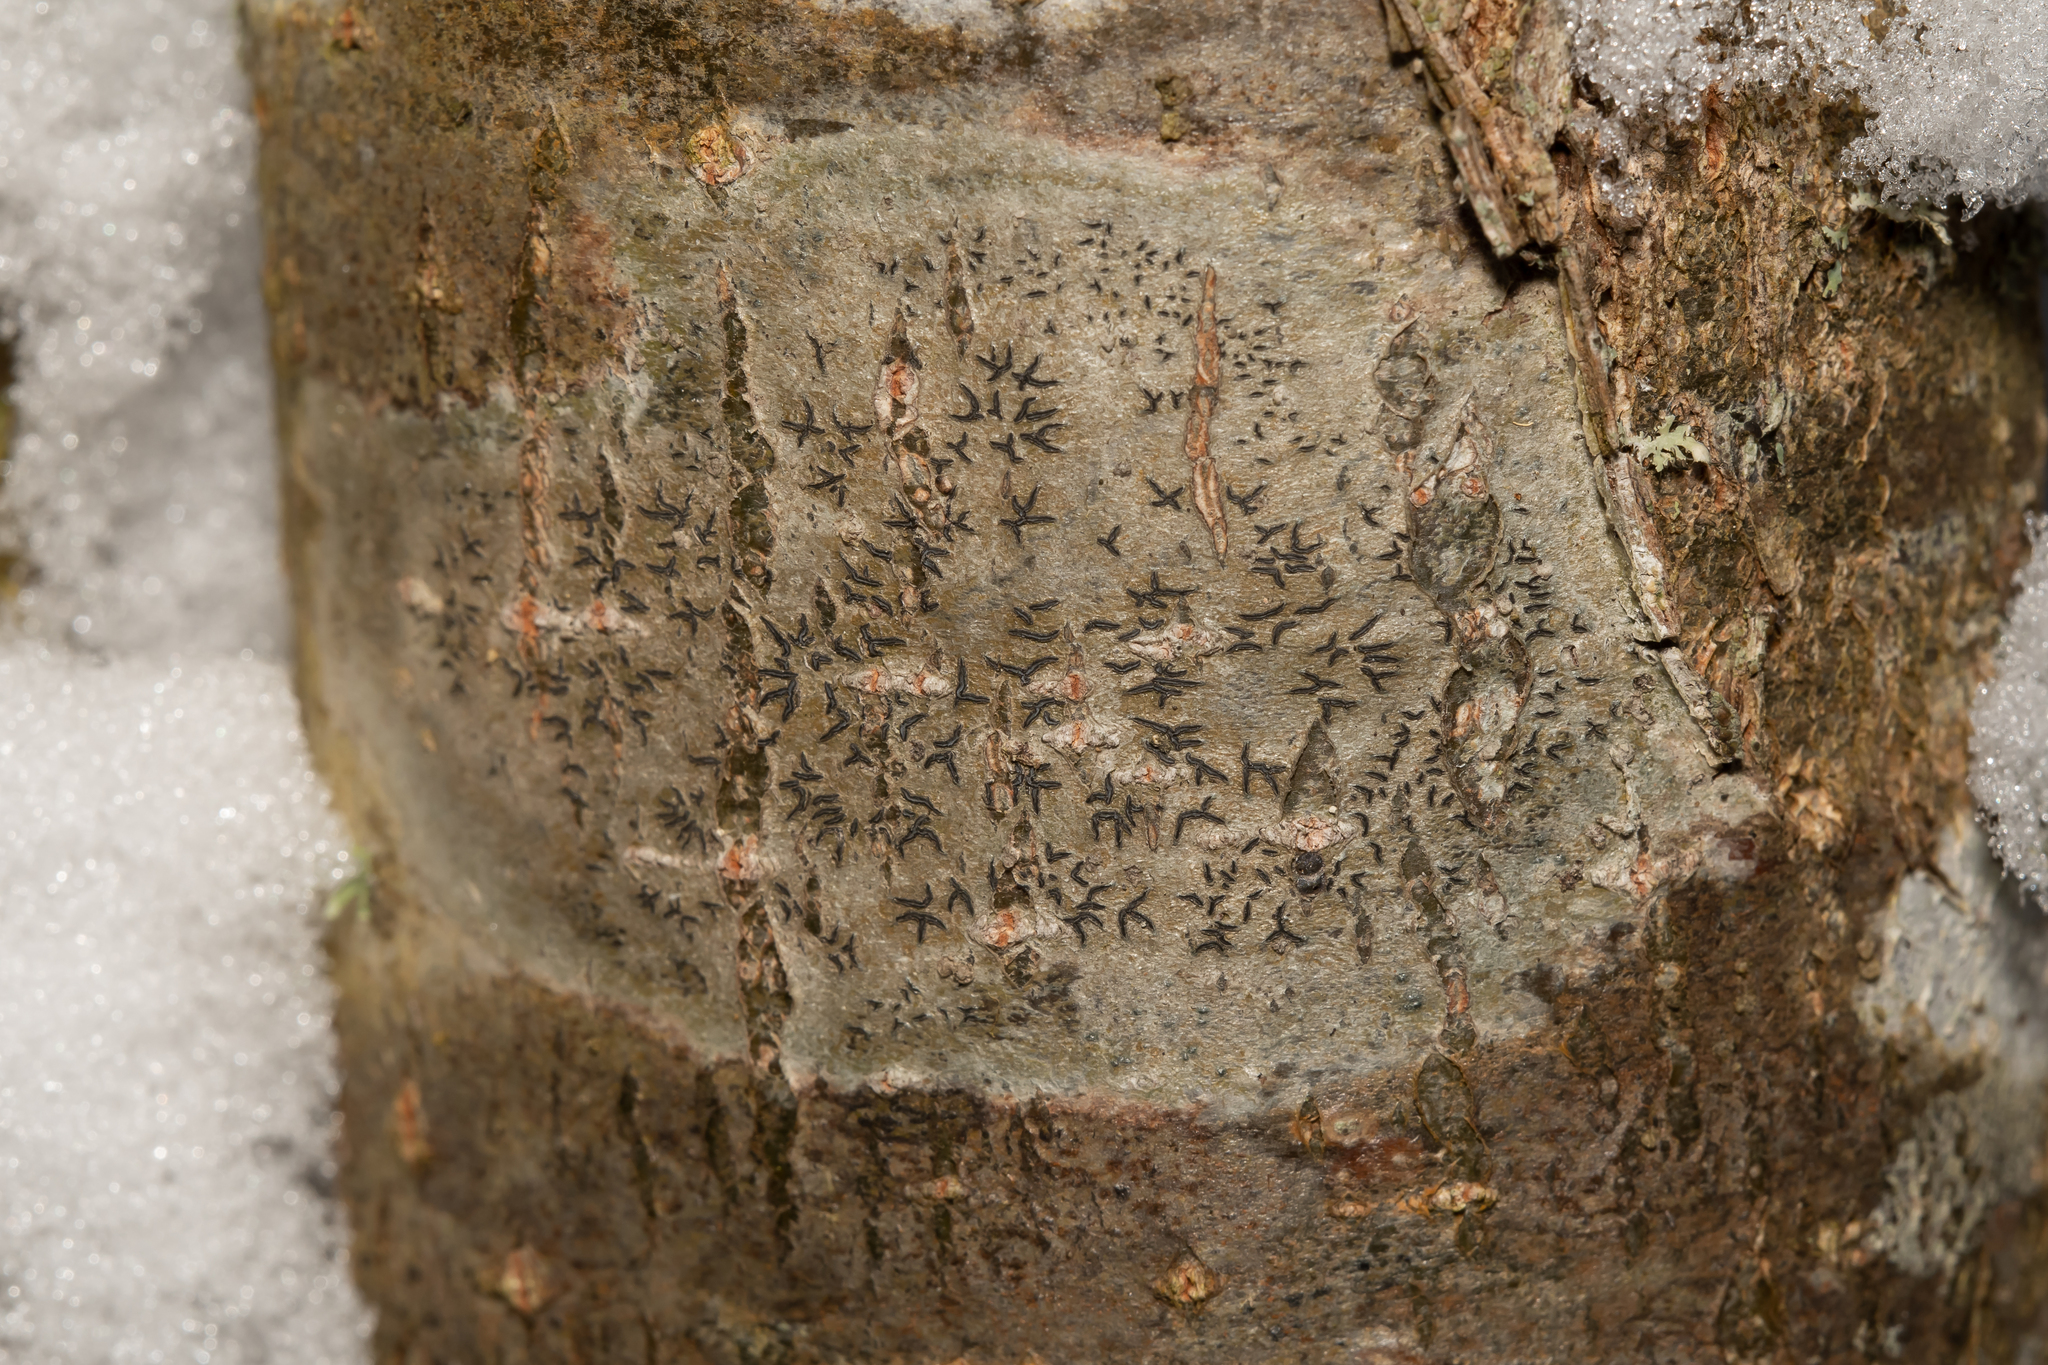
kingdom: Fungi
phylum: Ascomycota
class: Lecanoromycetes
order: Ostropales
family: Graphidaceae
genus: Graphis
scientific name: Graphis scripta
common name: Script lichen
